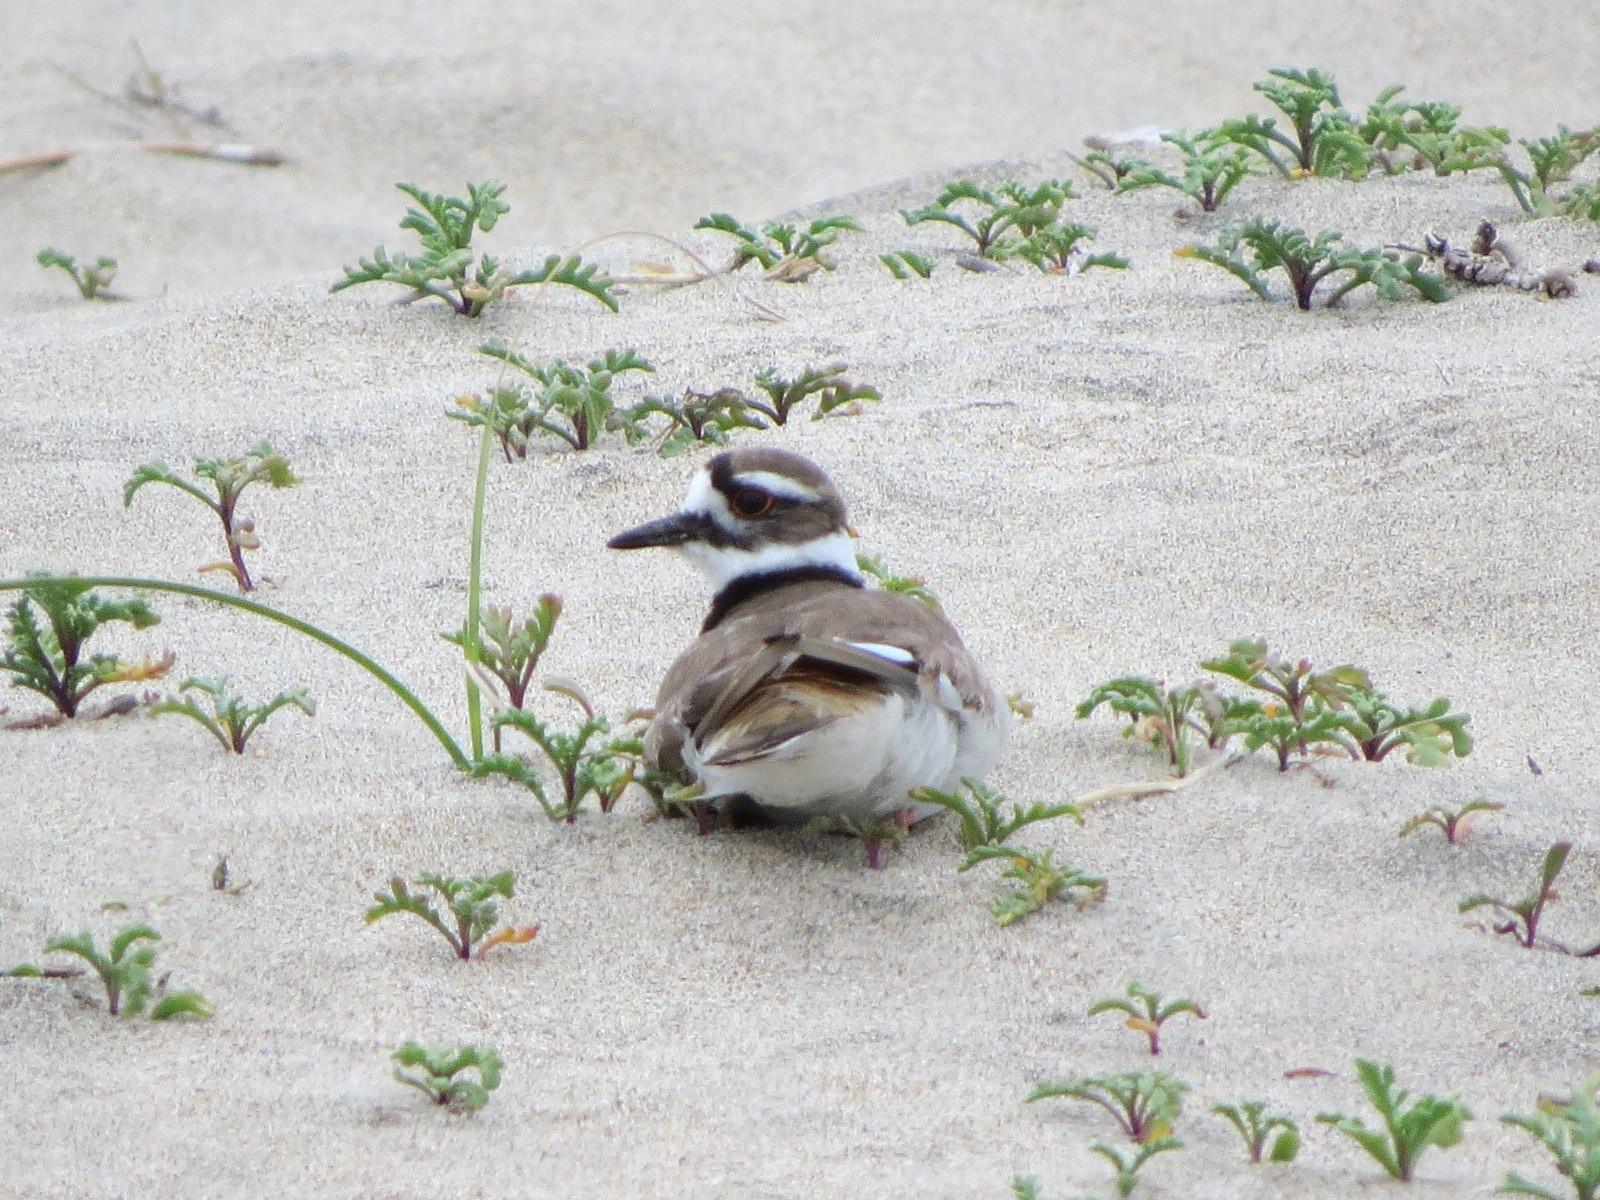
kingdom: Animalia
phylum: Chordata
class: Aves
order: Charadriiformes
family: Charadriidae
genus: Charadrius
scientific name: Charadrius vociferus
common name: Killdeer
